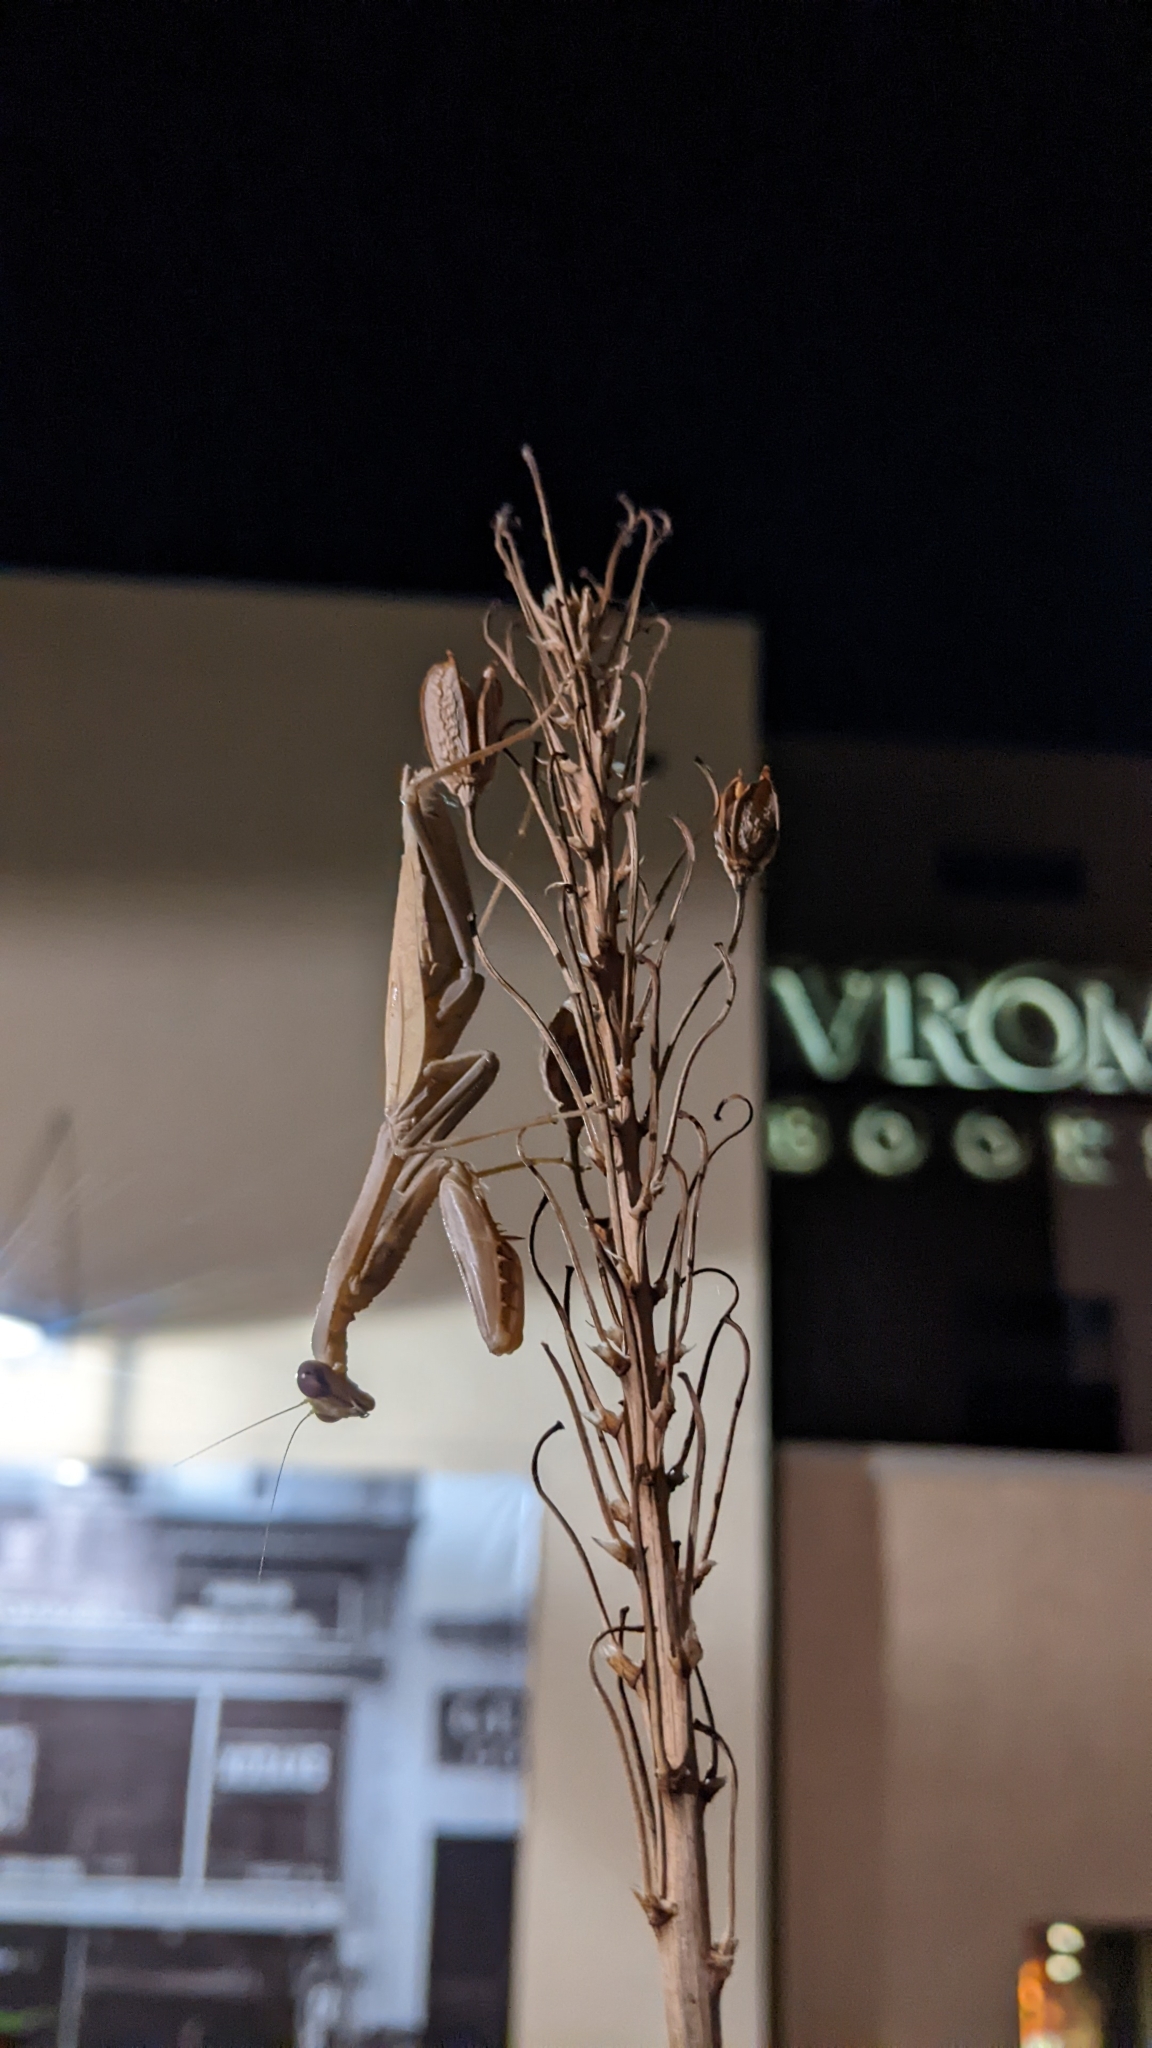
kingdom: Animalia
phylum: Arthropoda
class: Insecta
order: Mantodea
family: Mantidae
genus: Stagmomantis
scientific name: Stagmomantis limbata
